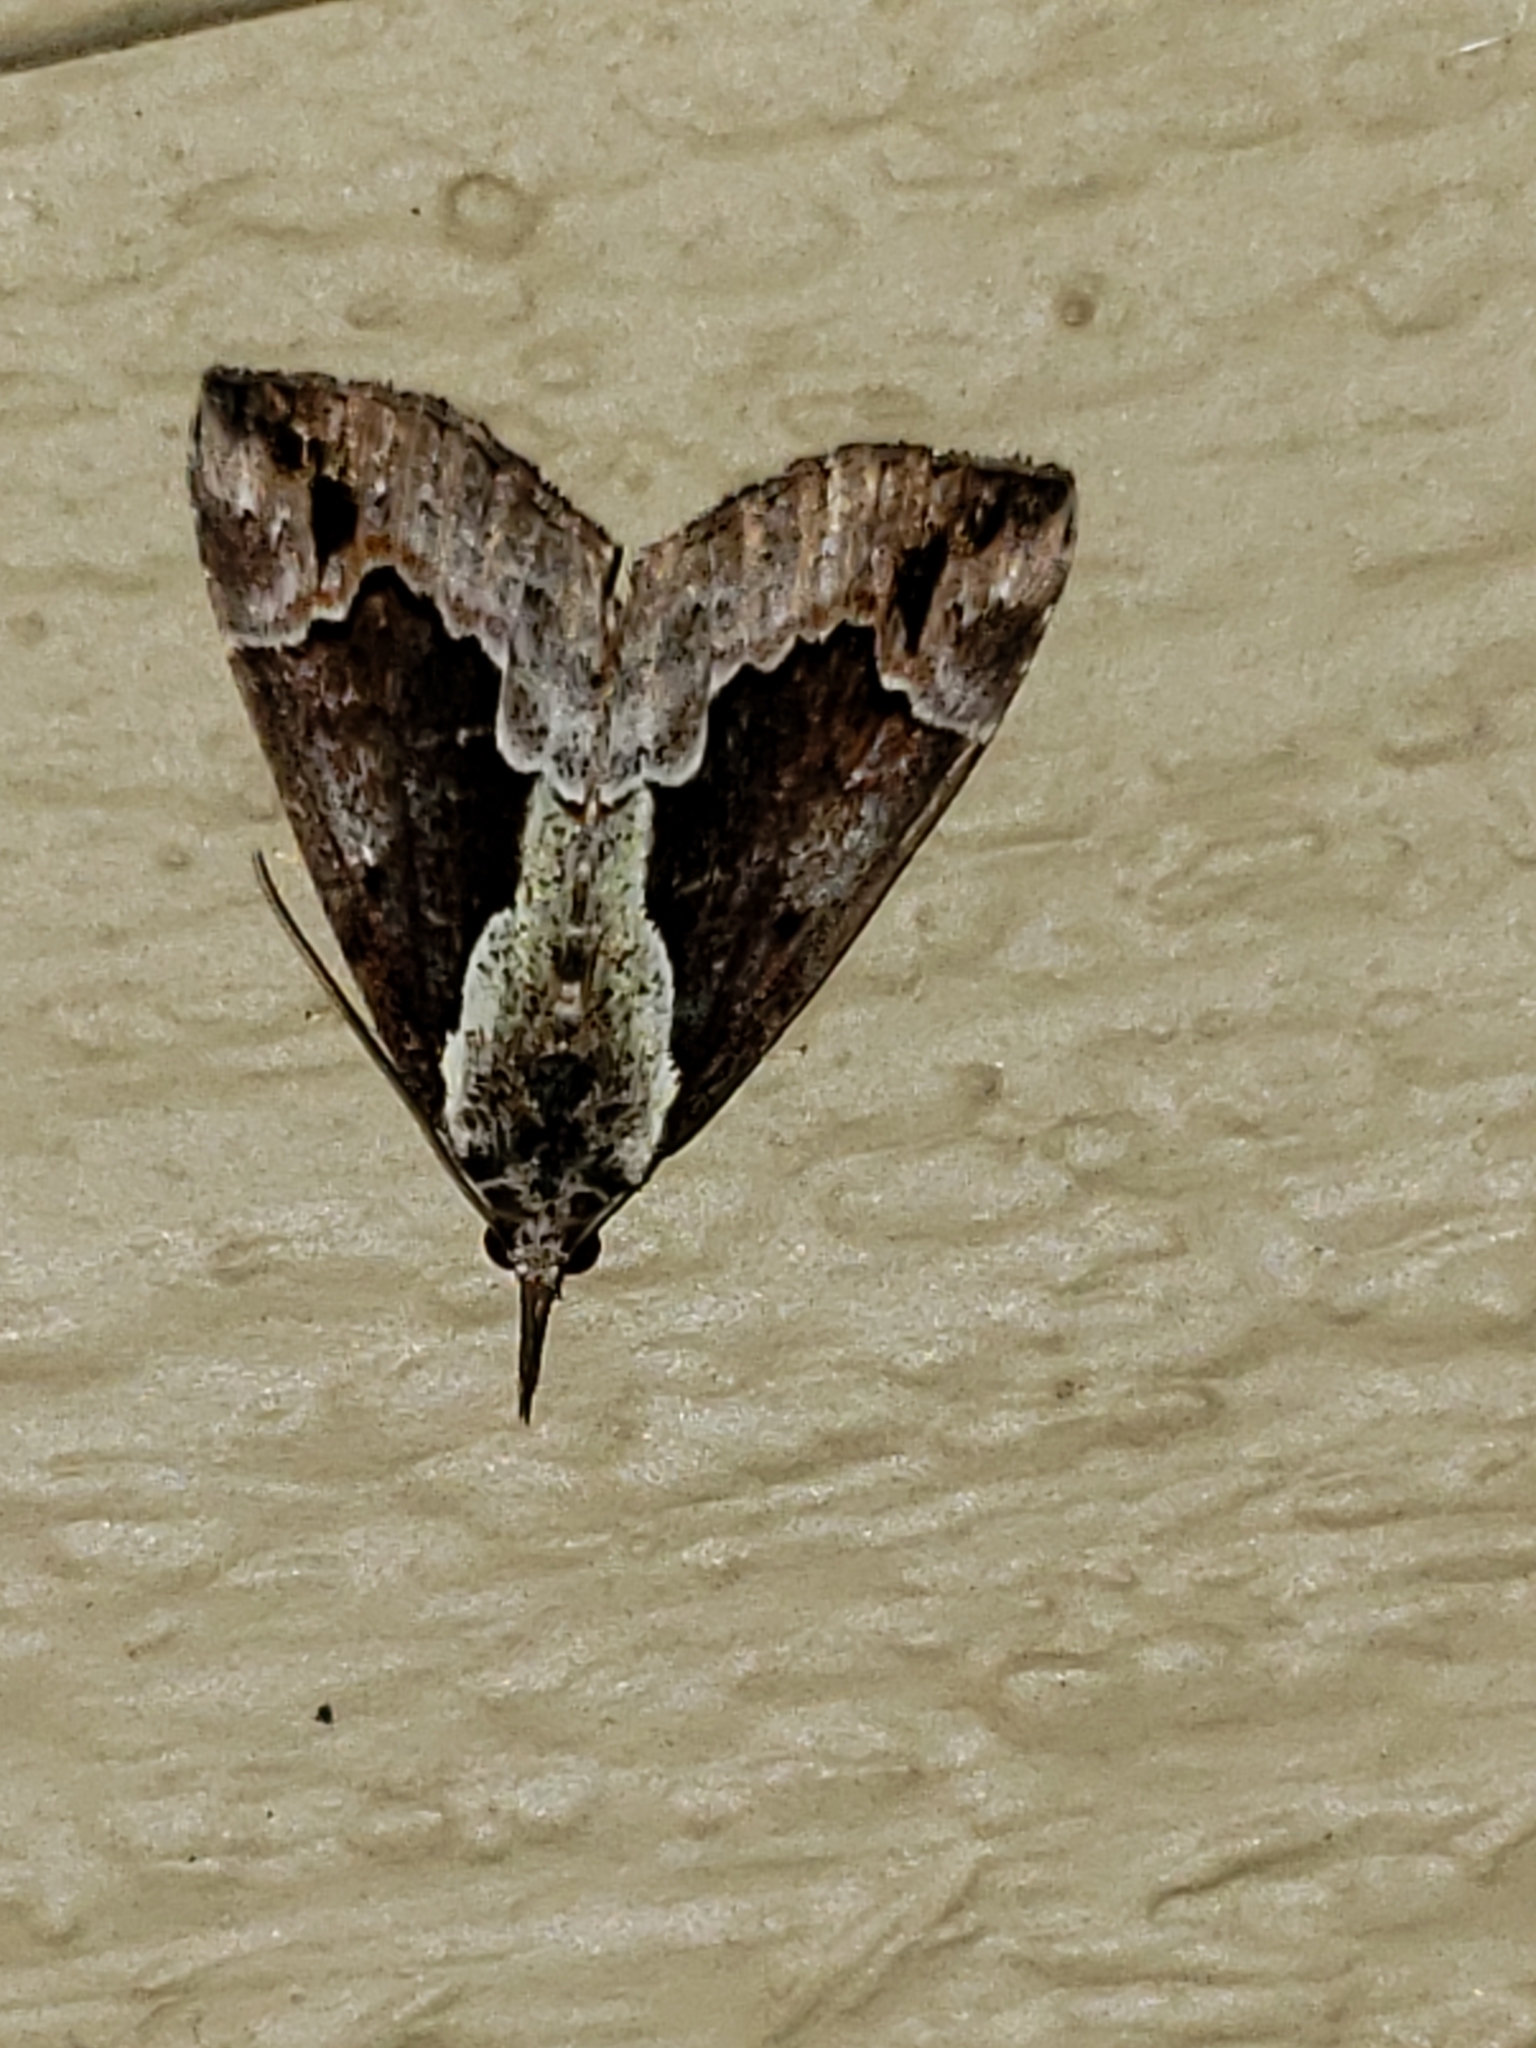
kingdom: Animalia
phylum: Arthropoda
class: Insecta
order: Lepidoptera
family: Erebidae
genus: Hypena
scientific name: Hypena baltimoralis
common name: Baltimore snout
